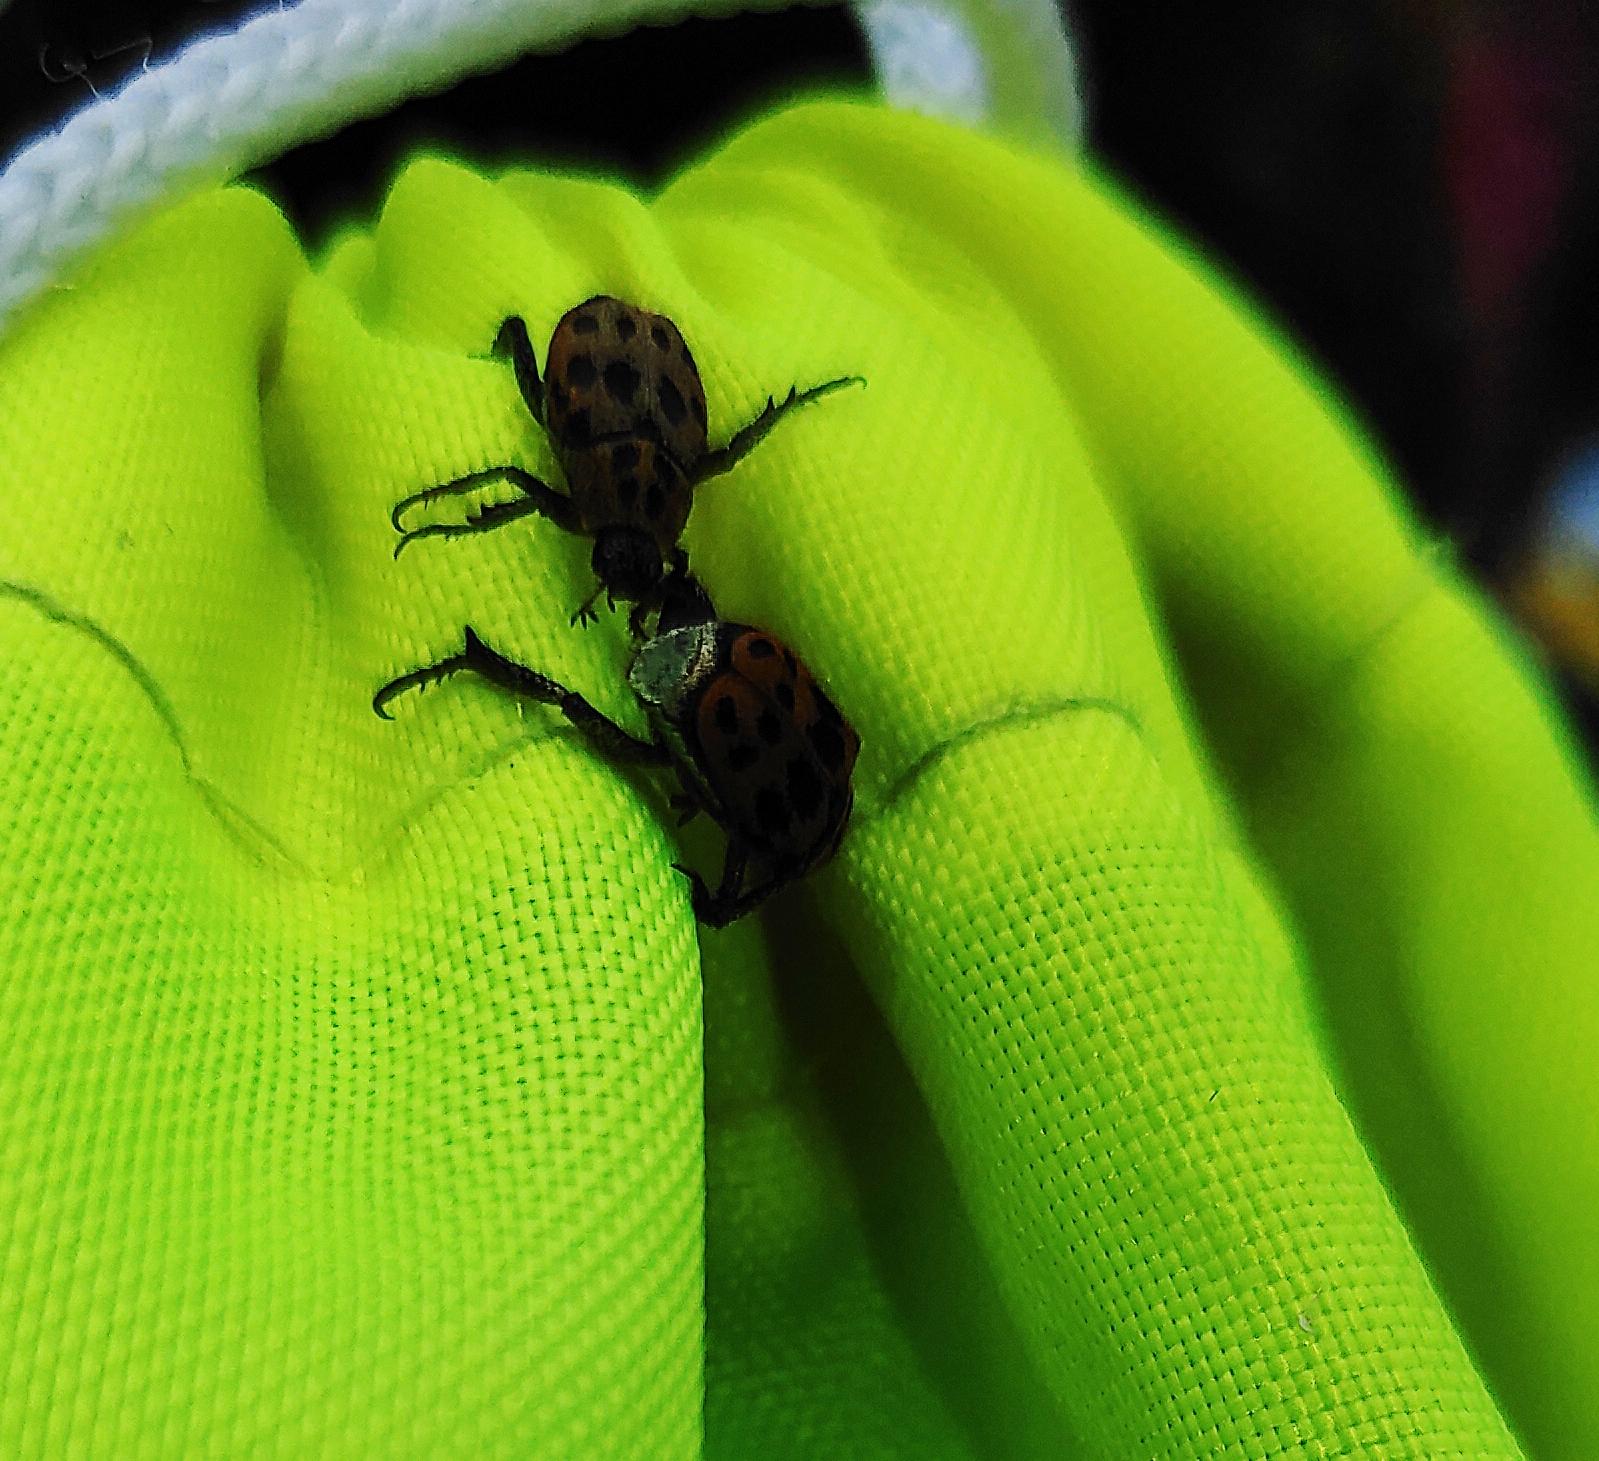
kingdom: Animalia
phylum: Arthropoda
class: Insecta
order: Coleoptera
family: Scarabaeidae
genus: Hoplia
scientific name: Hoplia aureola
